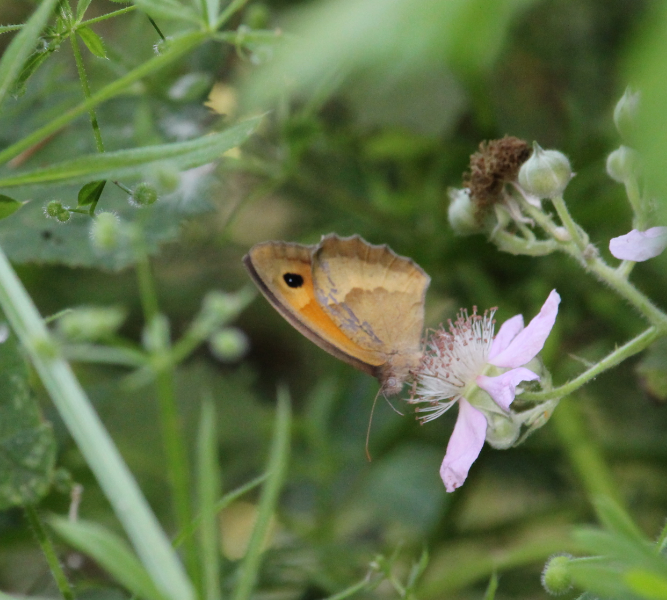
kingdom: Animalia
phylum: Arthropoda
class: Insecta
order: Lepidoptera
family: Nymphalidae
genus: Maniola
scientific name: Maniola jurtina
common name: Meadow brown
